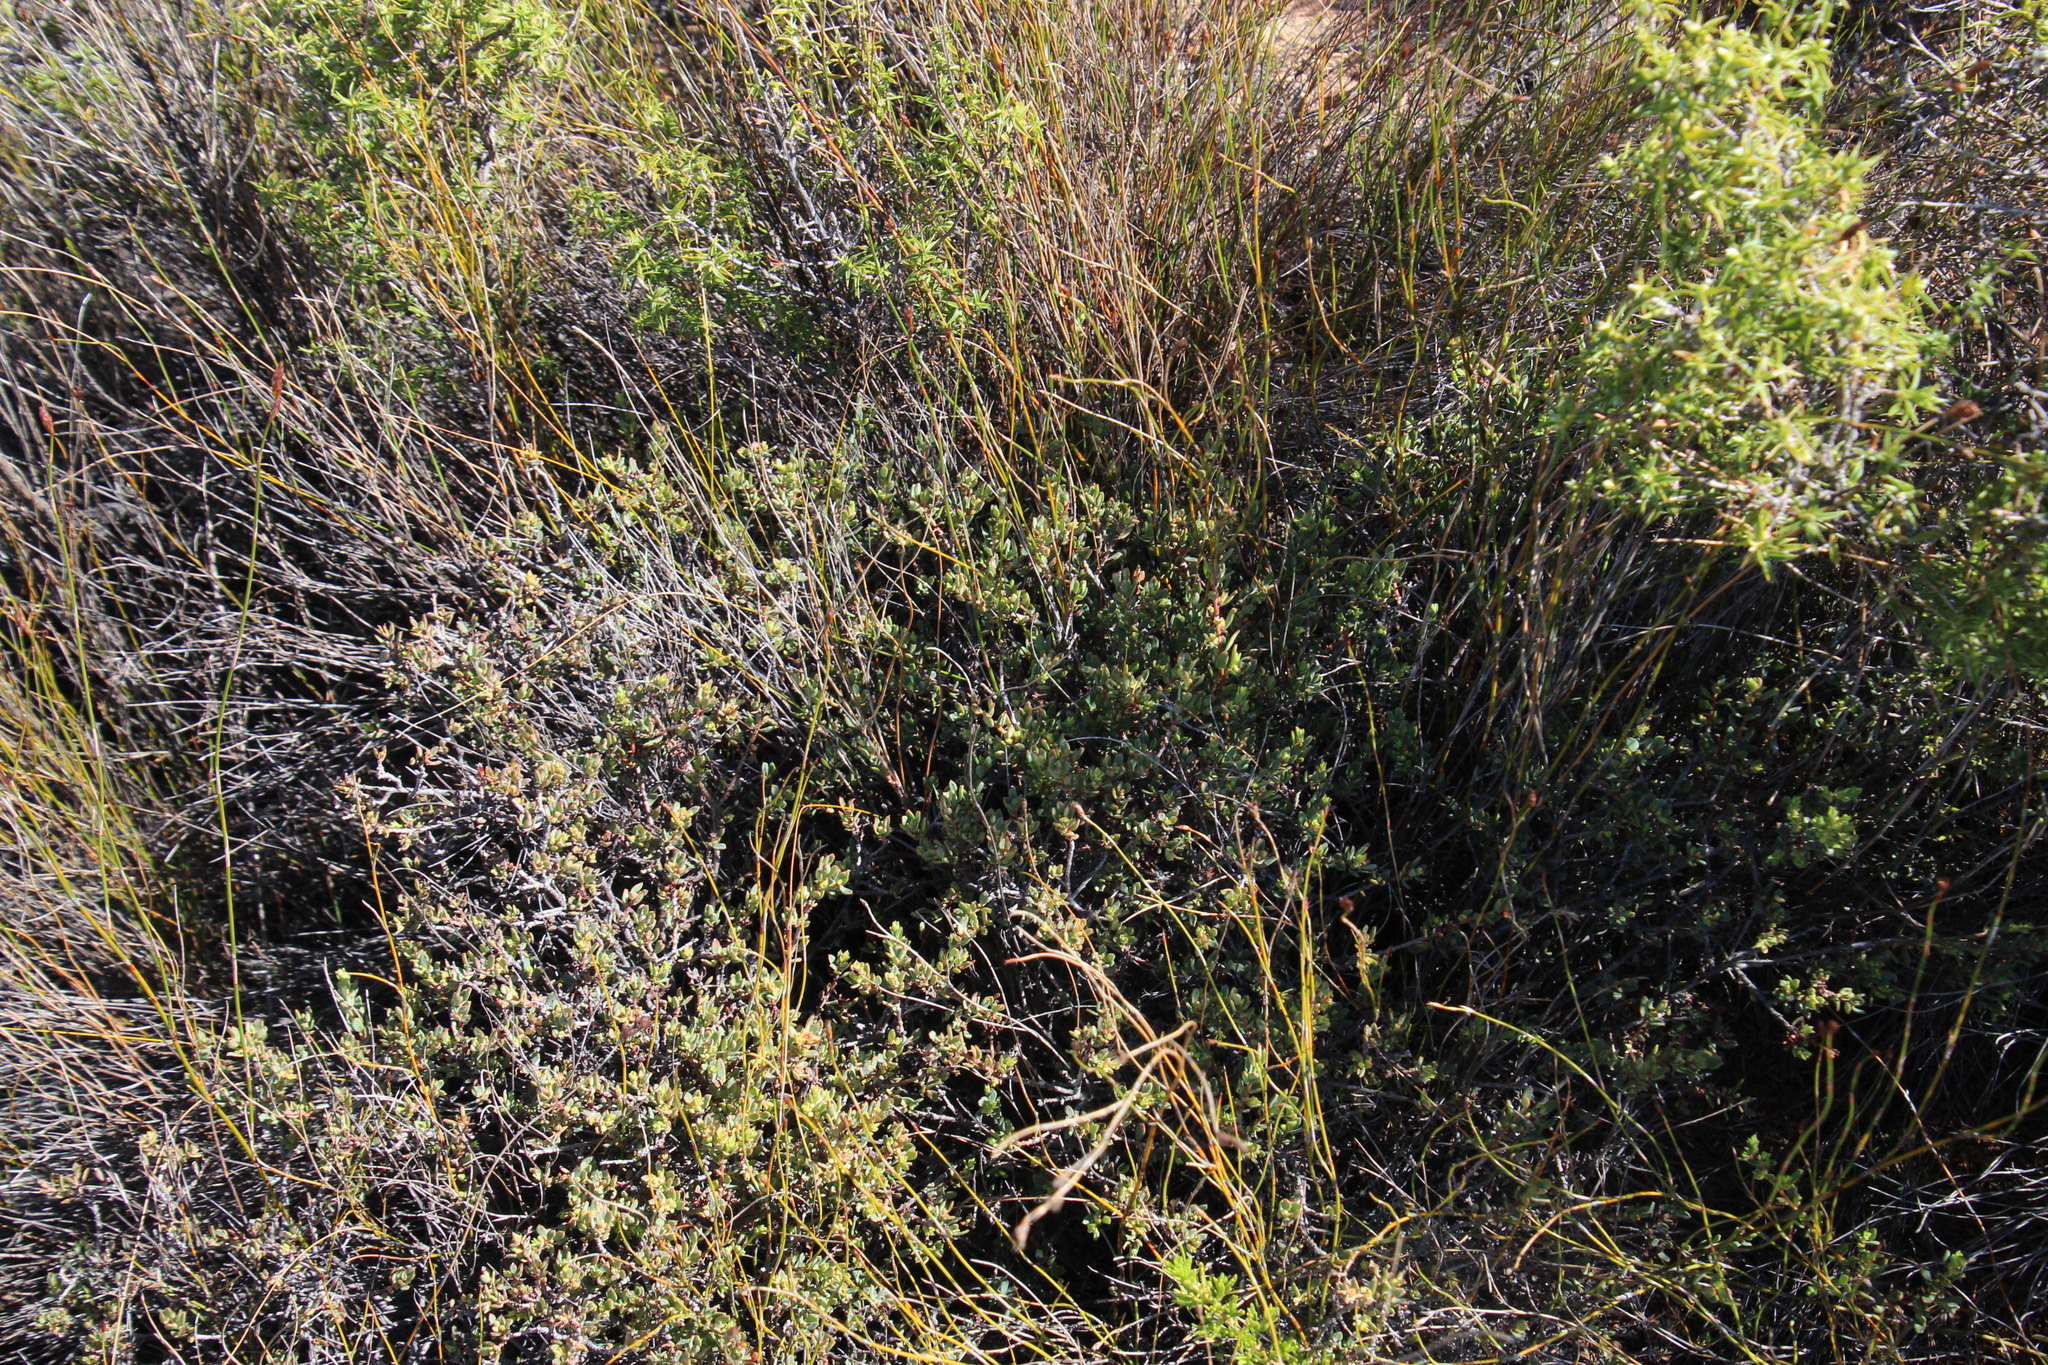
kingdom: Plantae
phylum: Tracheophyta
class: Magnoliopsida
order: Malpighiales
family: Peraceae
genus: Clutia
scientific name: Clutia alaternoides
